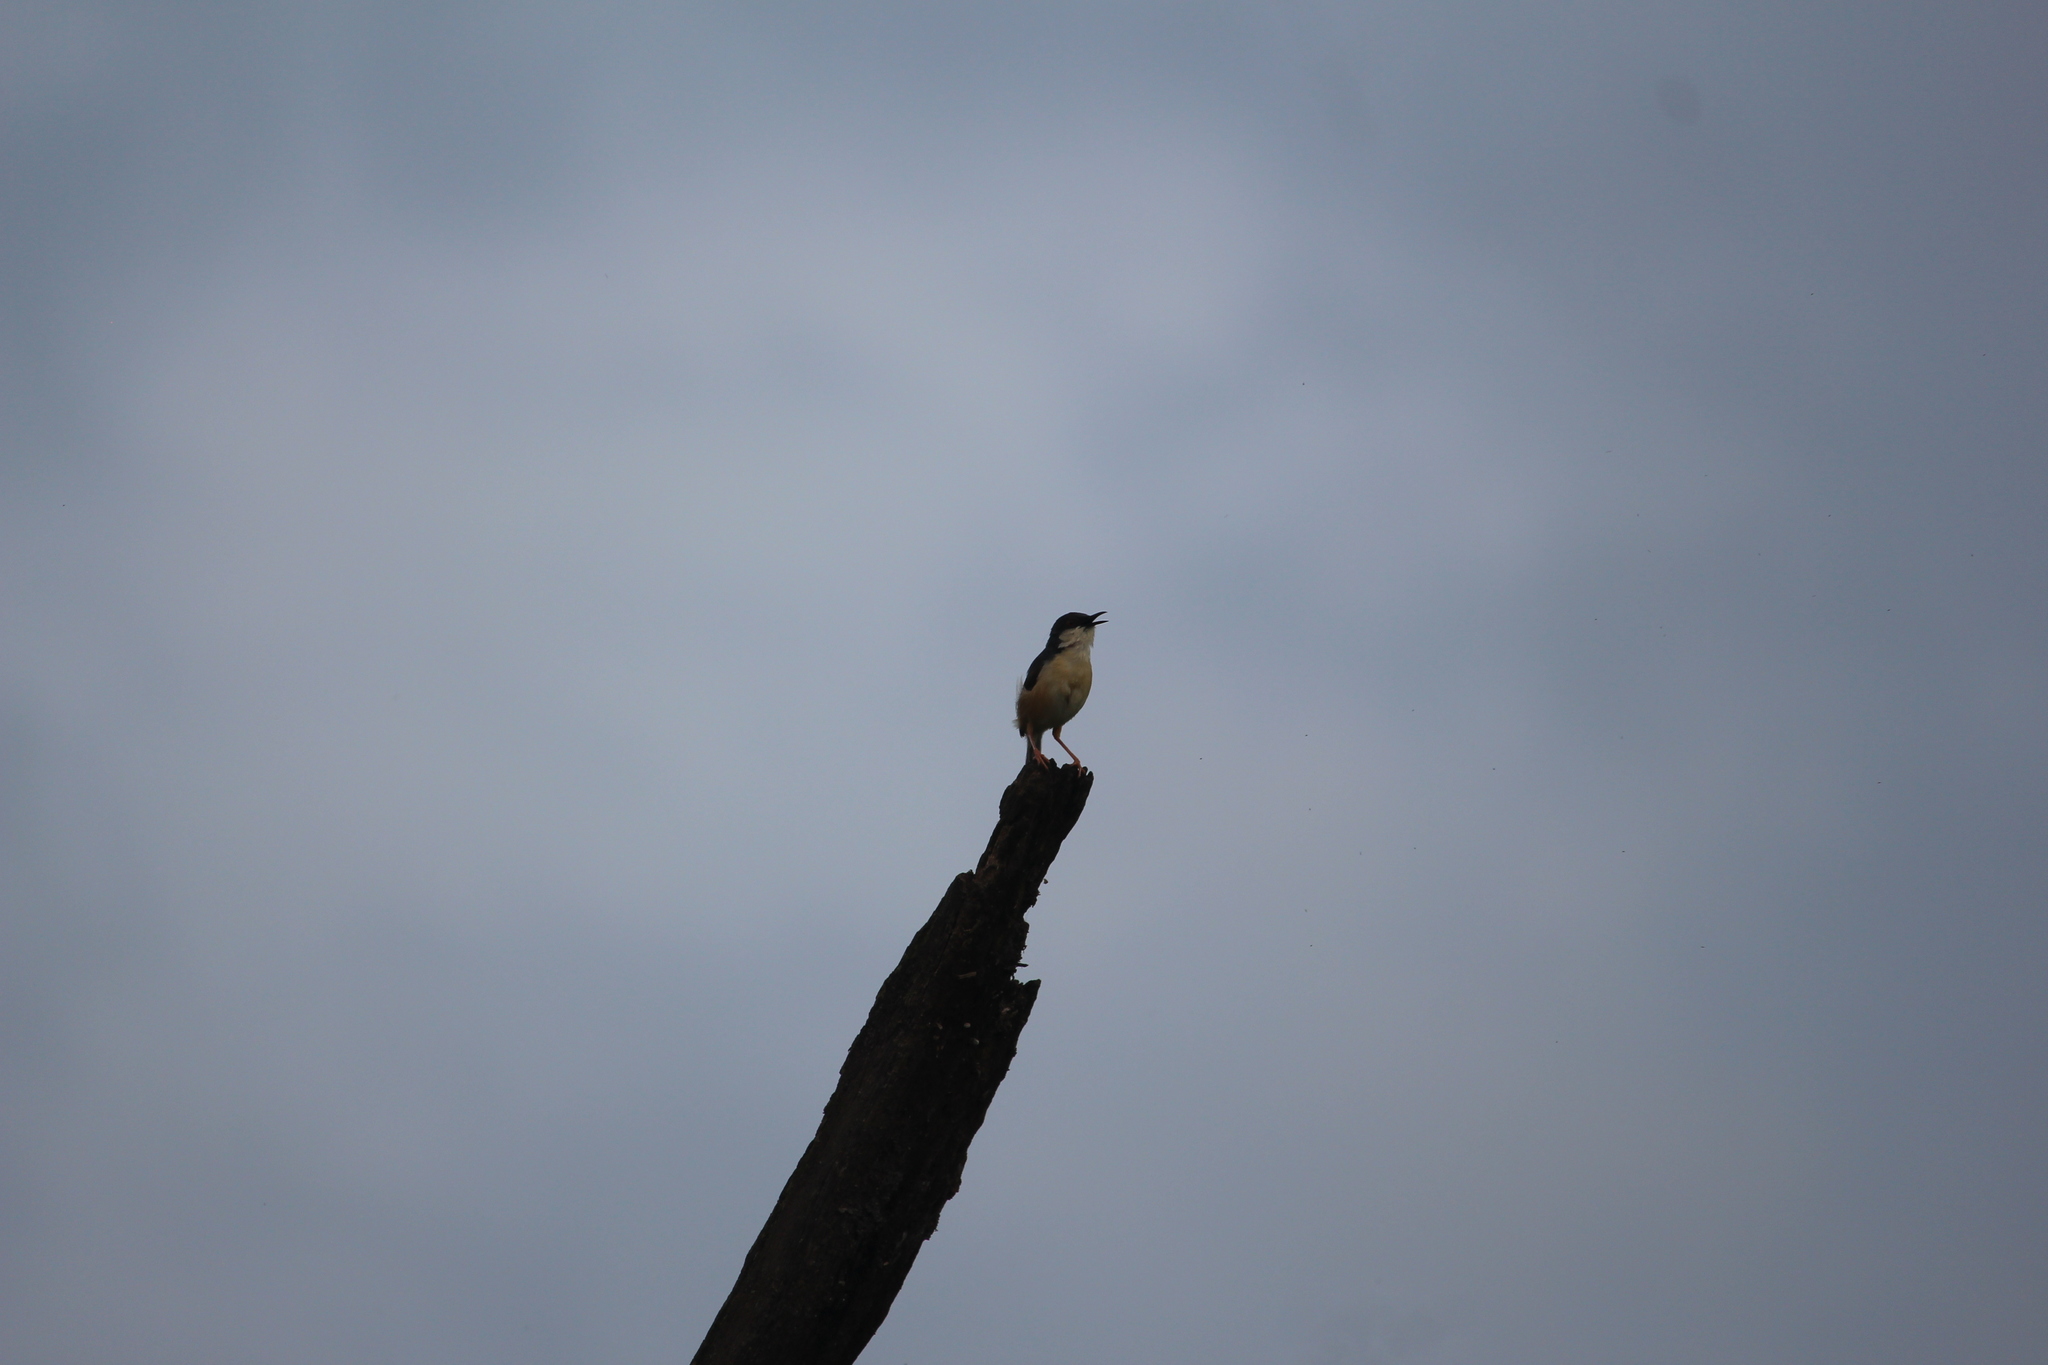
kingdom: Animalia
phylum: Chordata
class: Aves
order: Passeriformes
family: Cisticolidae
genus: Prinia
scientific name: Prinia socialis
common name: Ashy prinia
